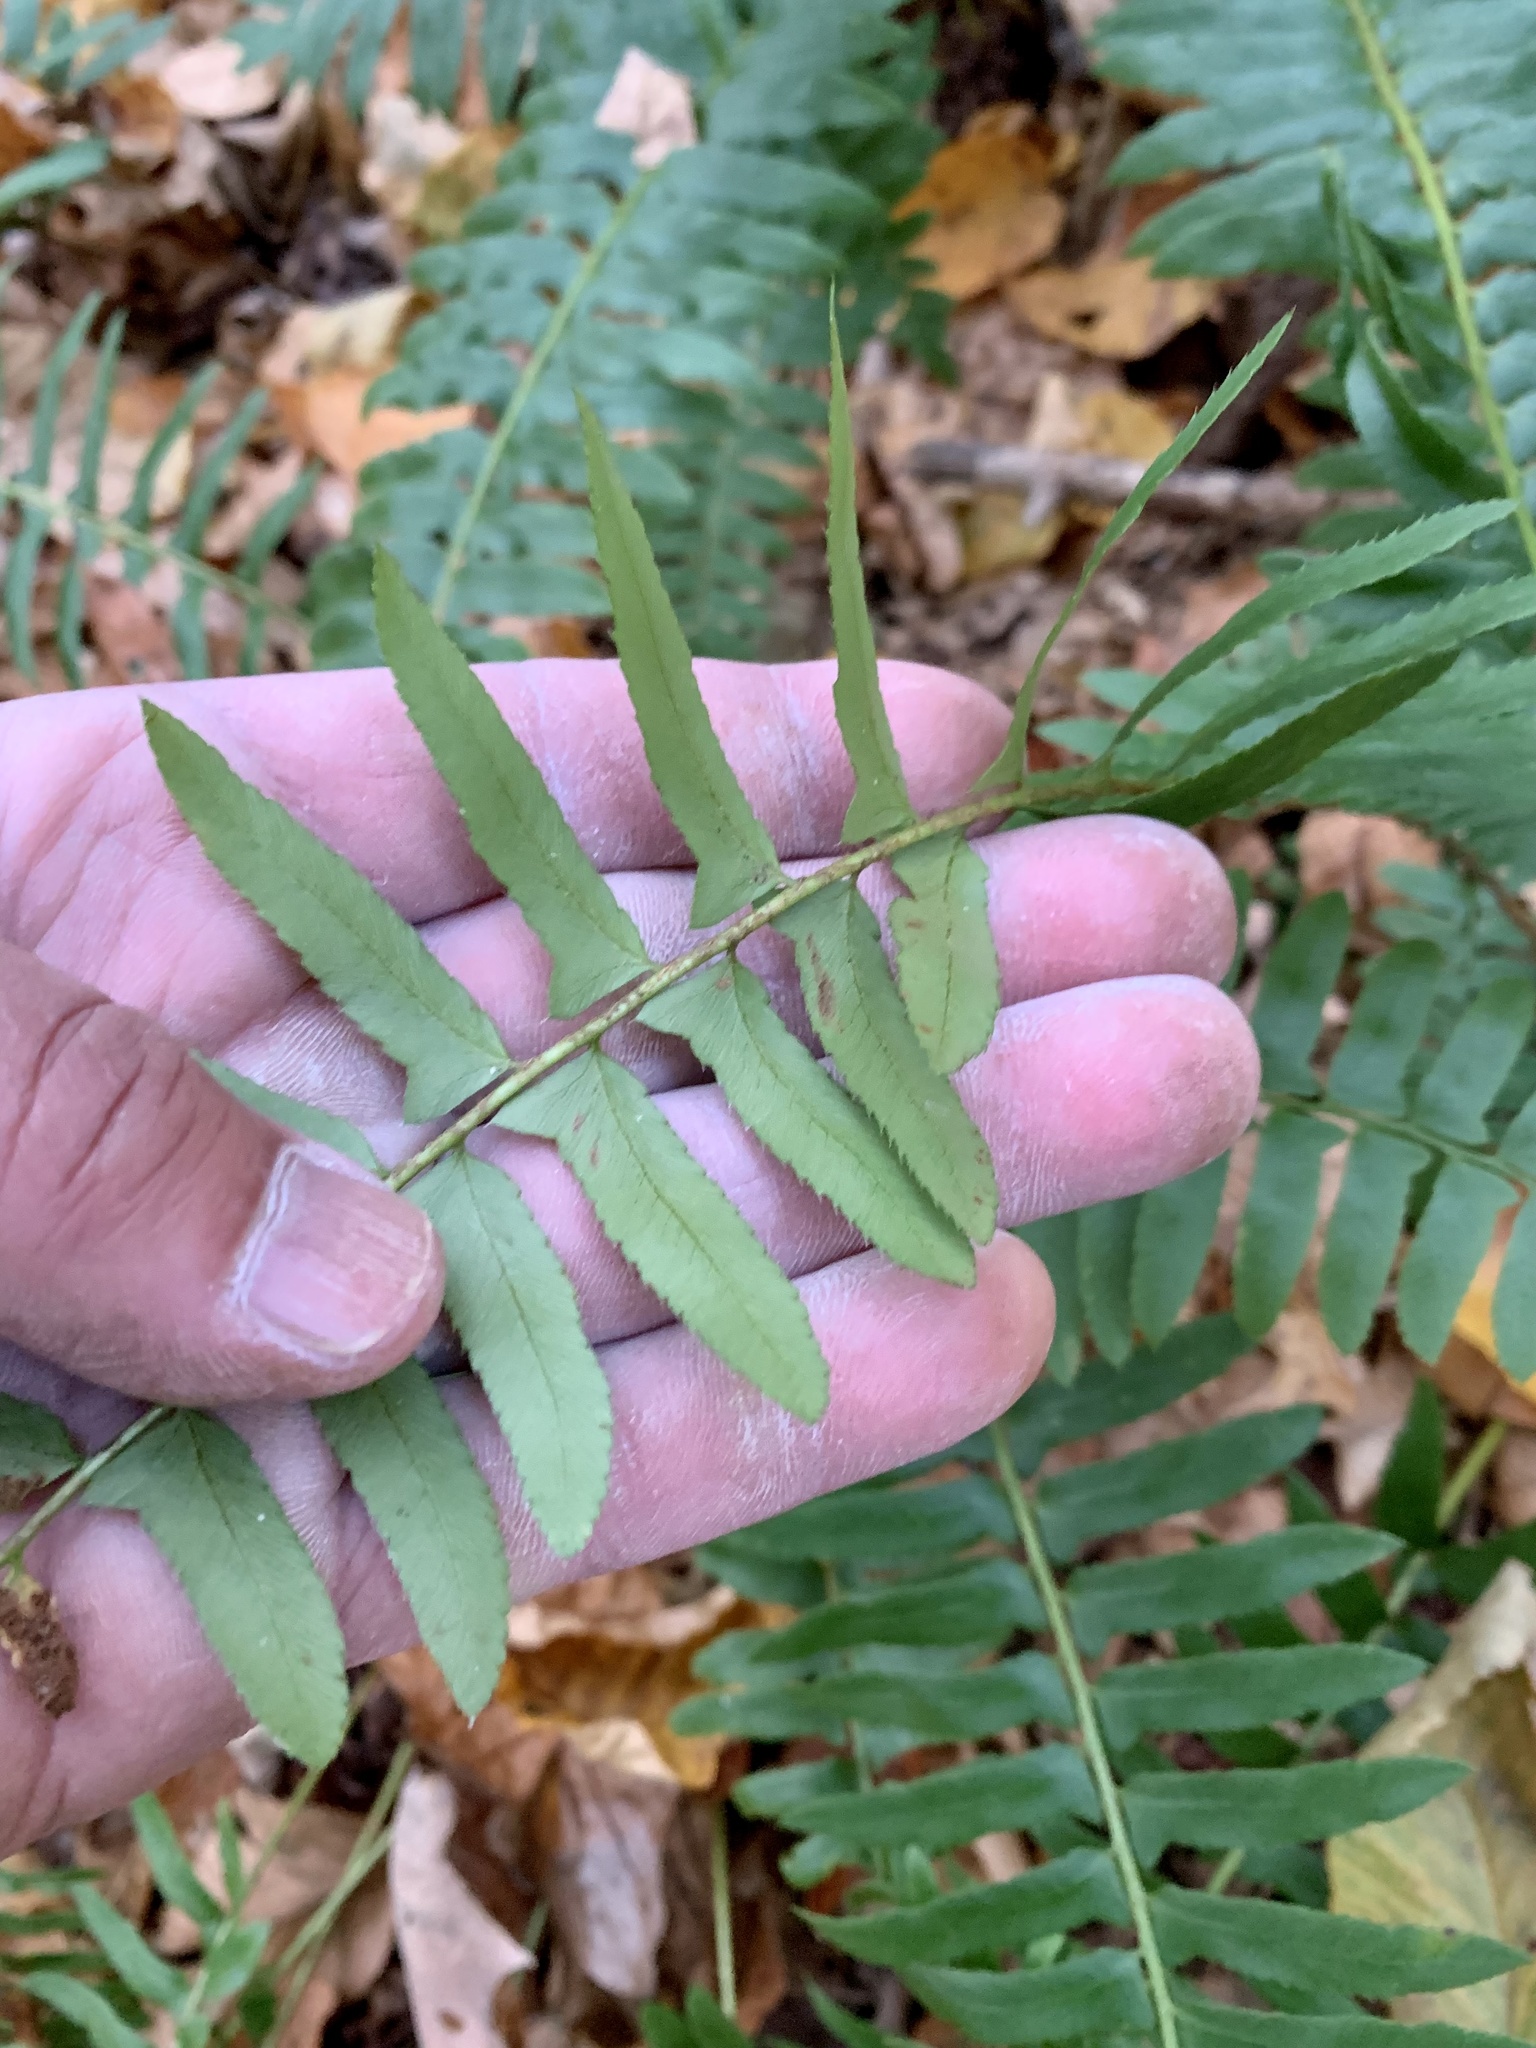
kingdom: Plantae
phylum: Tracheophyta
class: Polypodiopsida
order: Polypodiales
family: Dryopteridaceae
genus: Polystichum
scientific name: Polystichum acrostichoides
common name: Christmas fern
